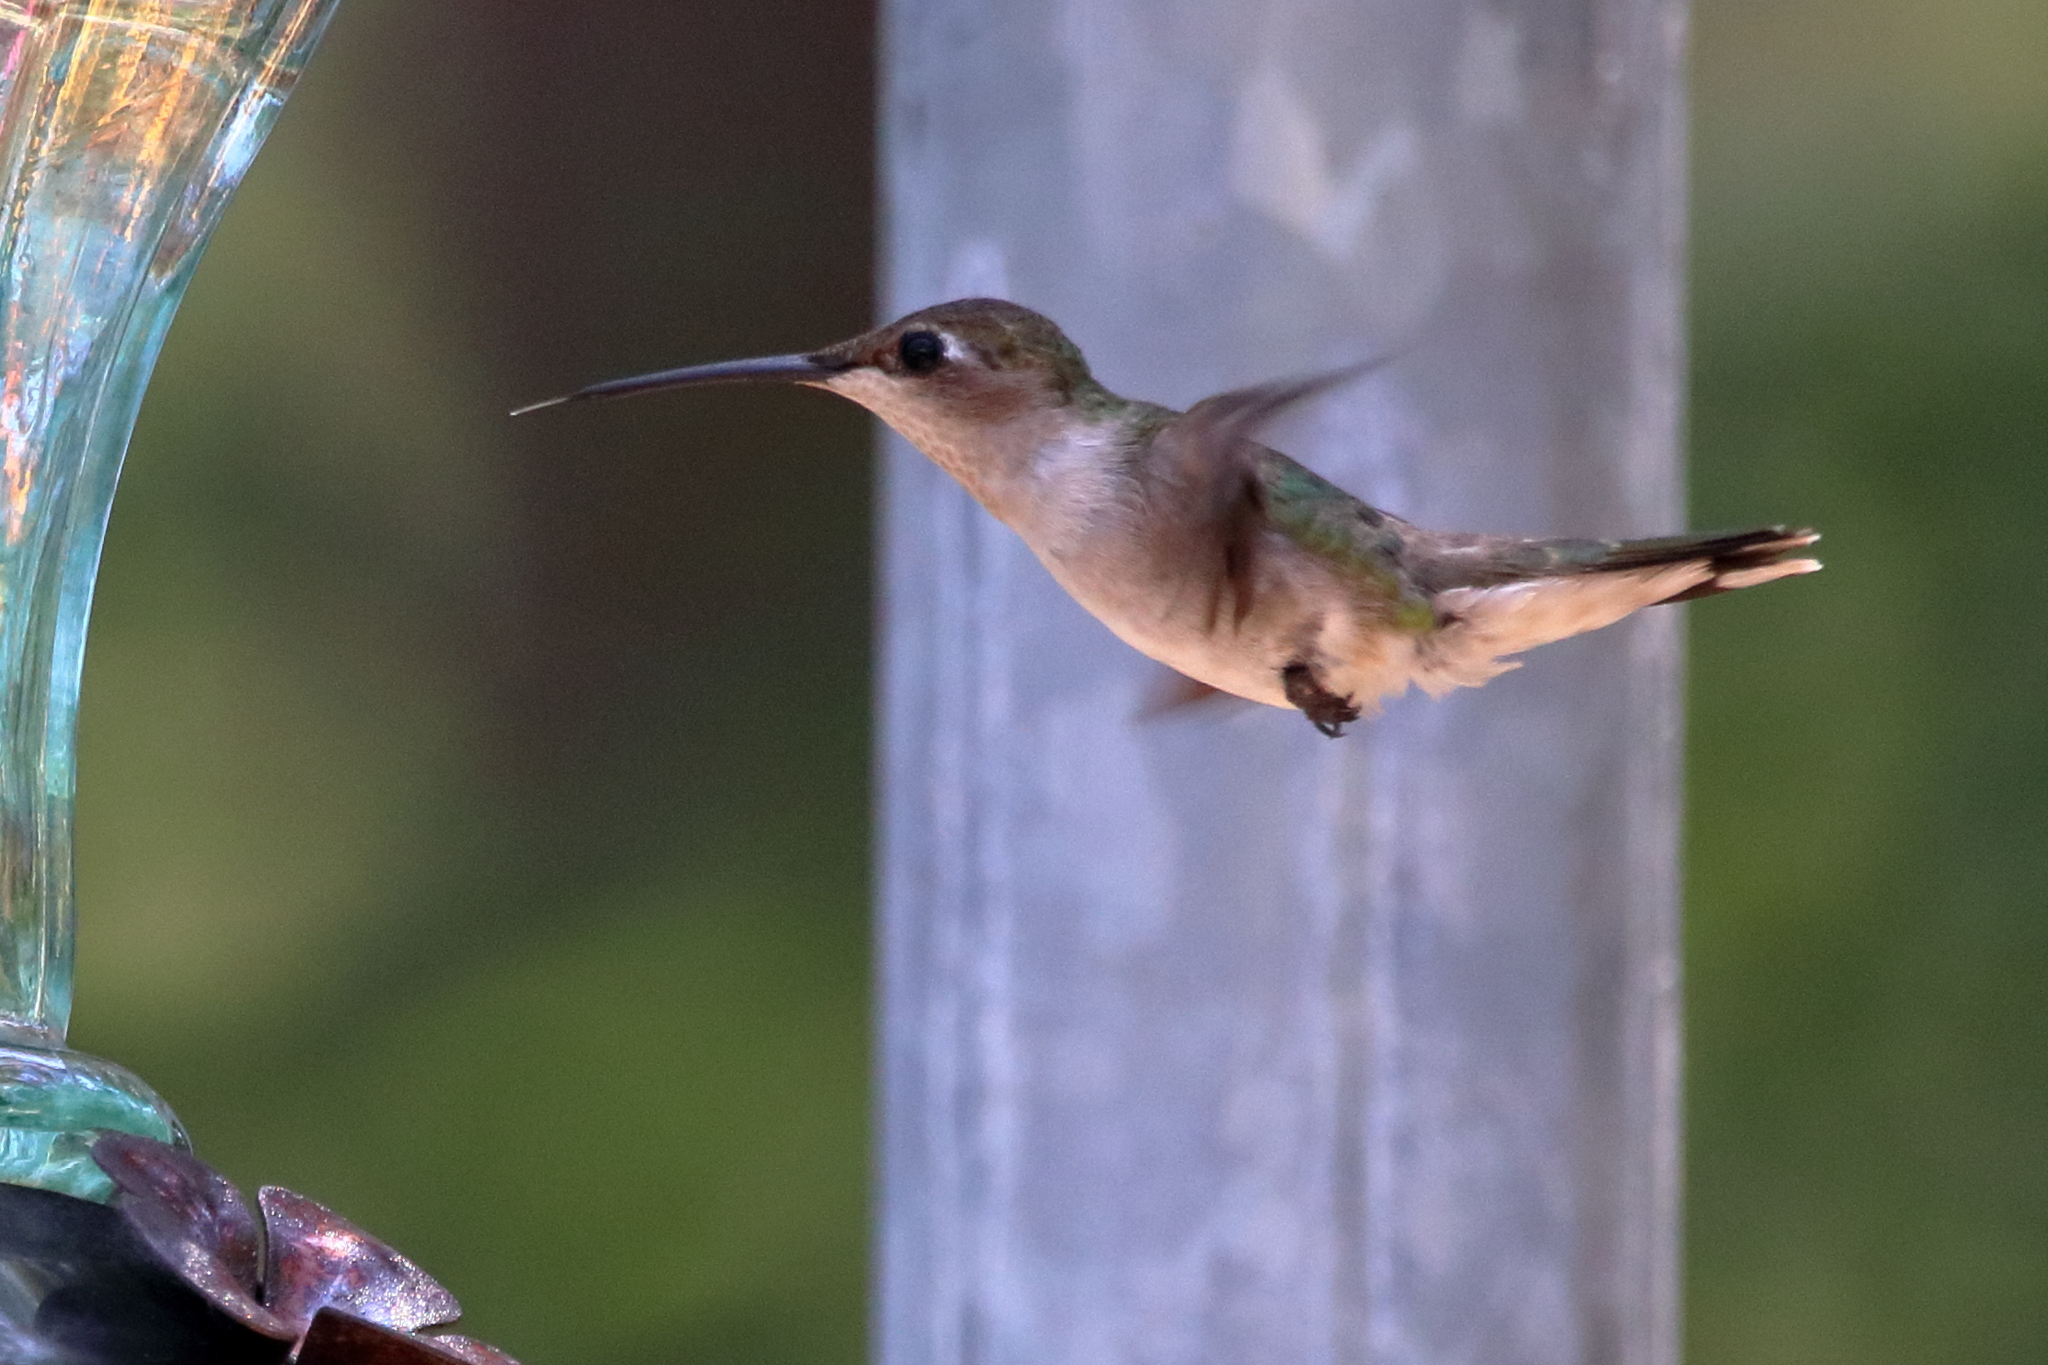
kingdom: Animalia
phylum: Chordata
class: Aves
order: Apodiformes
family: Trochilidae
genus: Archilochus
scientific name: Archilochus colubris
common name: Ruby-throated hummingbird
